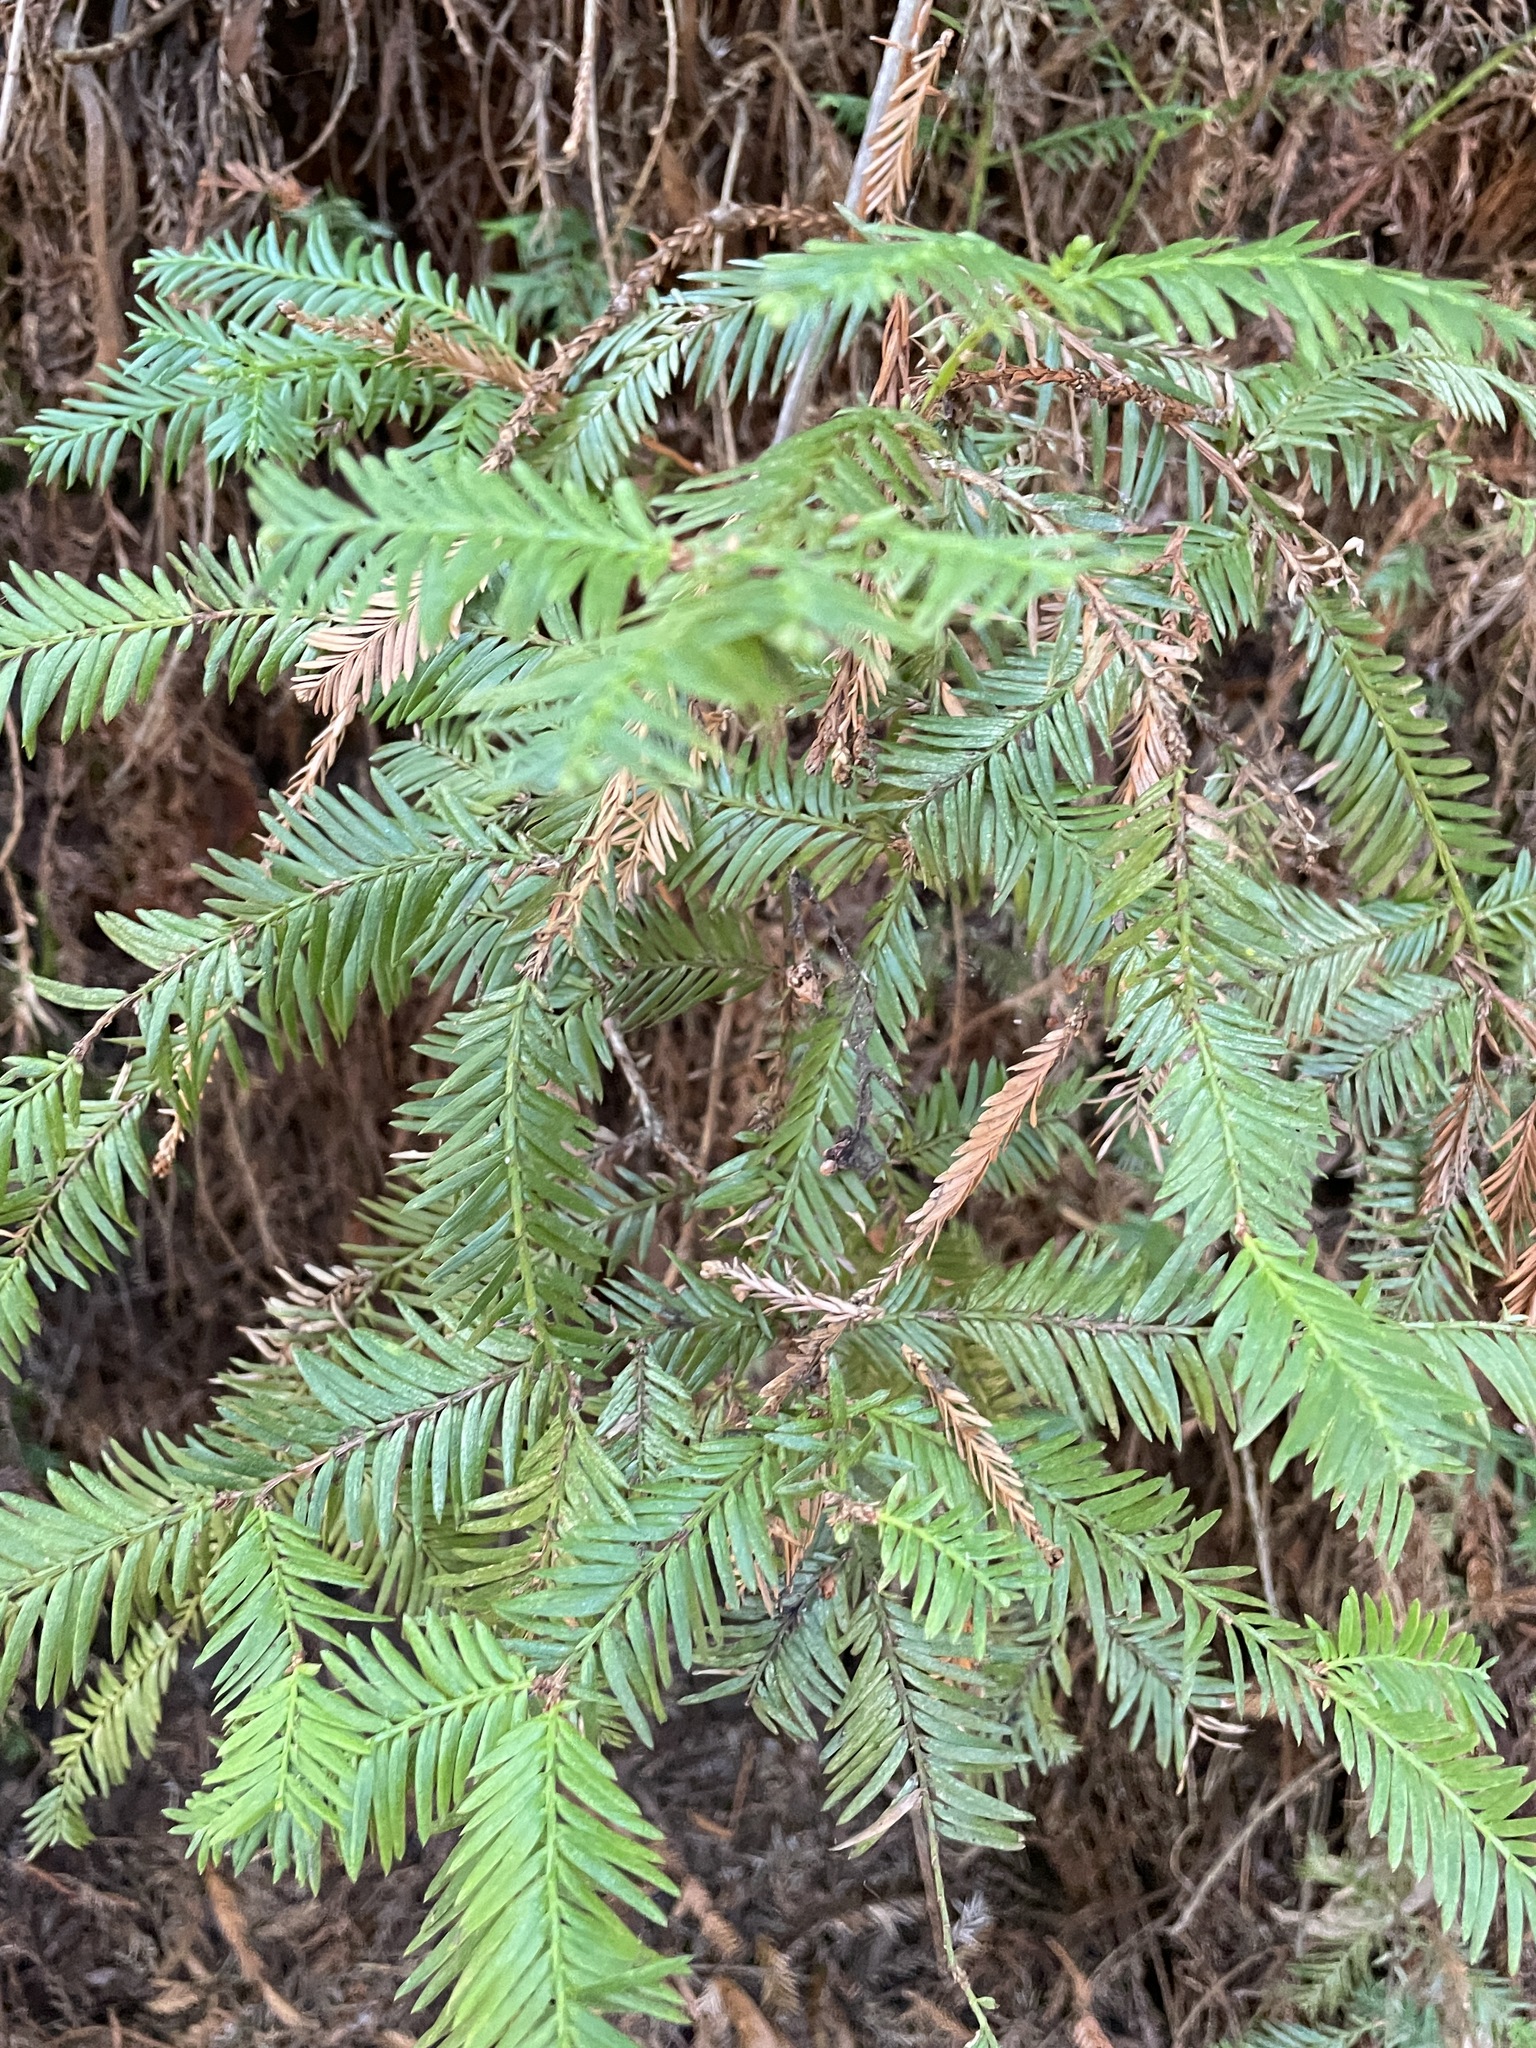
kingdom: Plantae
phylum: Tracheophyta
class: Pinopsida
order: Pinales
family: Cupressaceae
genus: Sequoia
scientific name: Sequoia sempervirens
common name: Coast redwood
